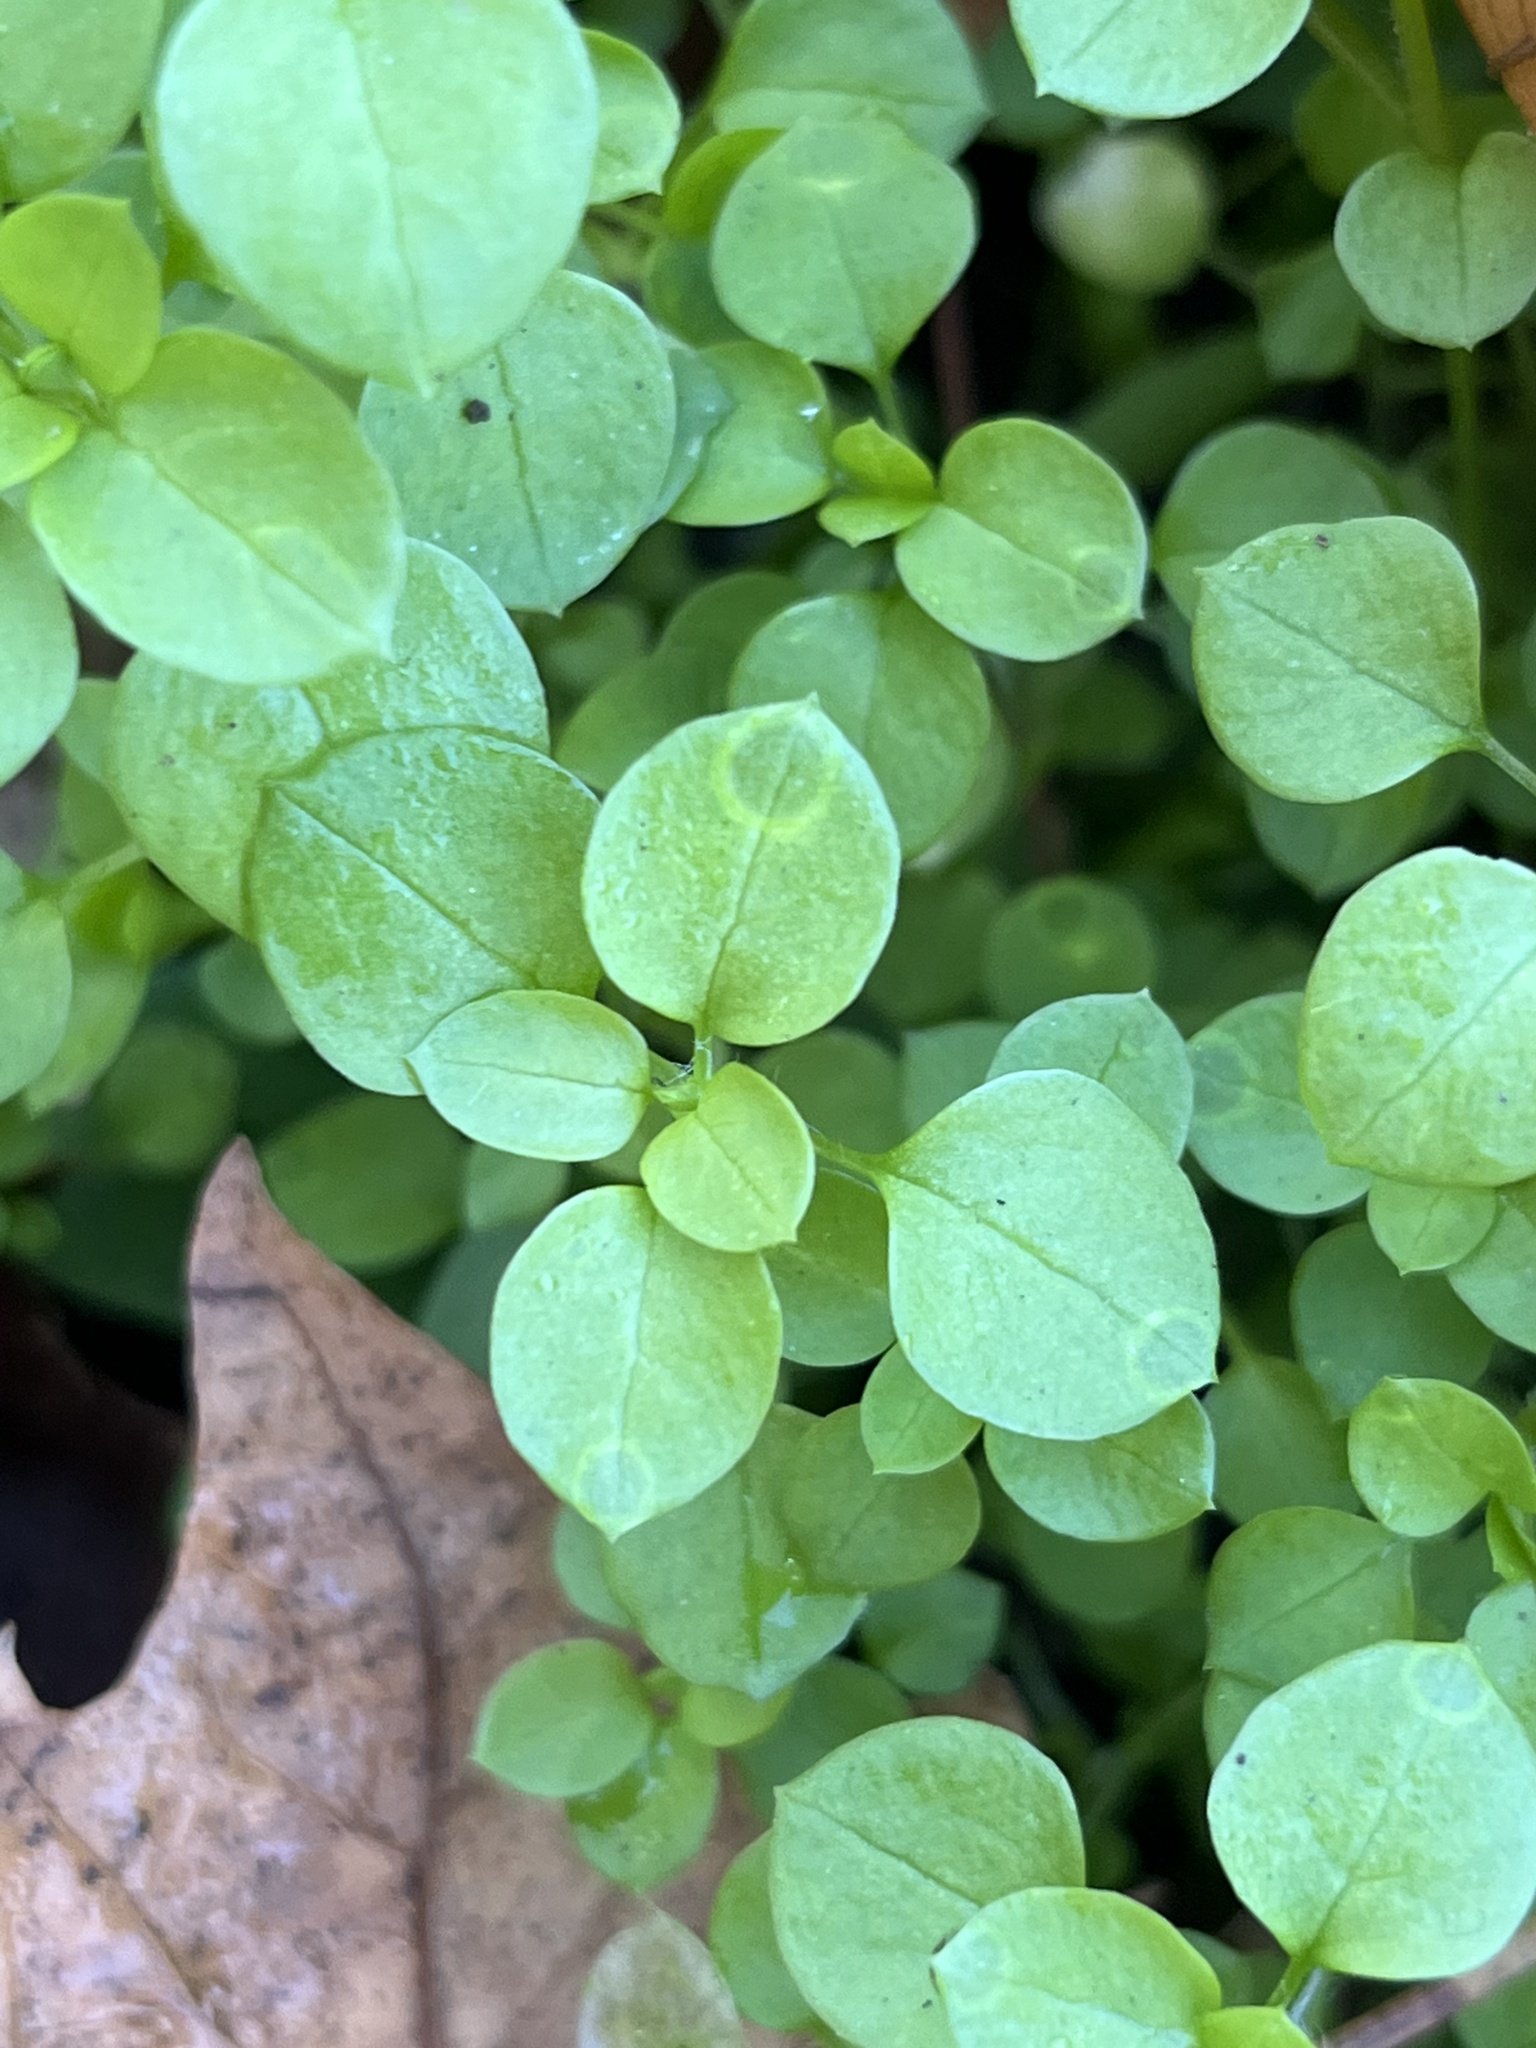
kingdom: Plantae
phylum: Tracheophyta
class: Magnoliopsida
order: Caryophyllales
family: Caryophyllaceae
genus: Stellaria
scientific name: Stellaria media
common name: Common chickweed
